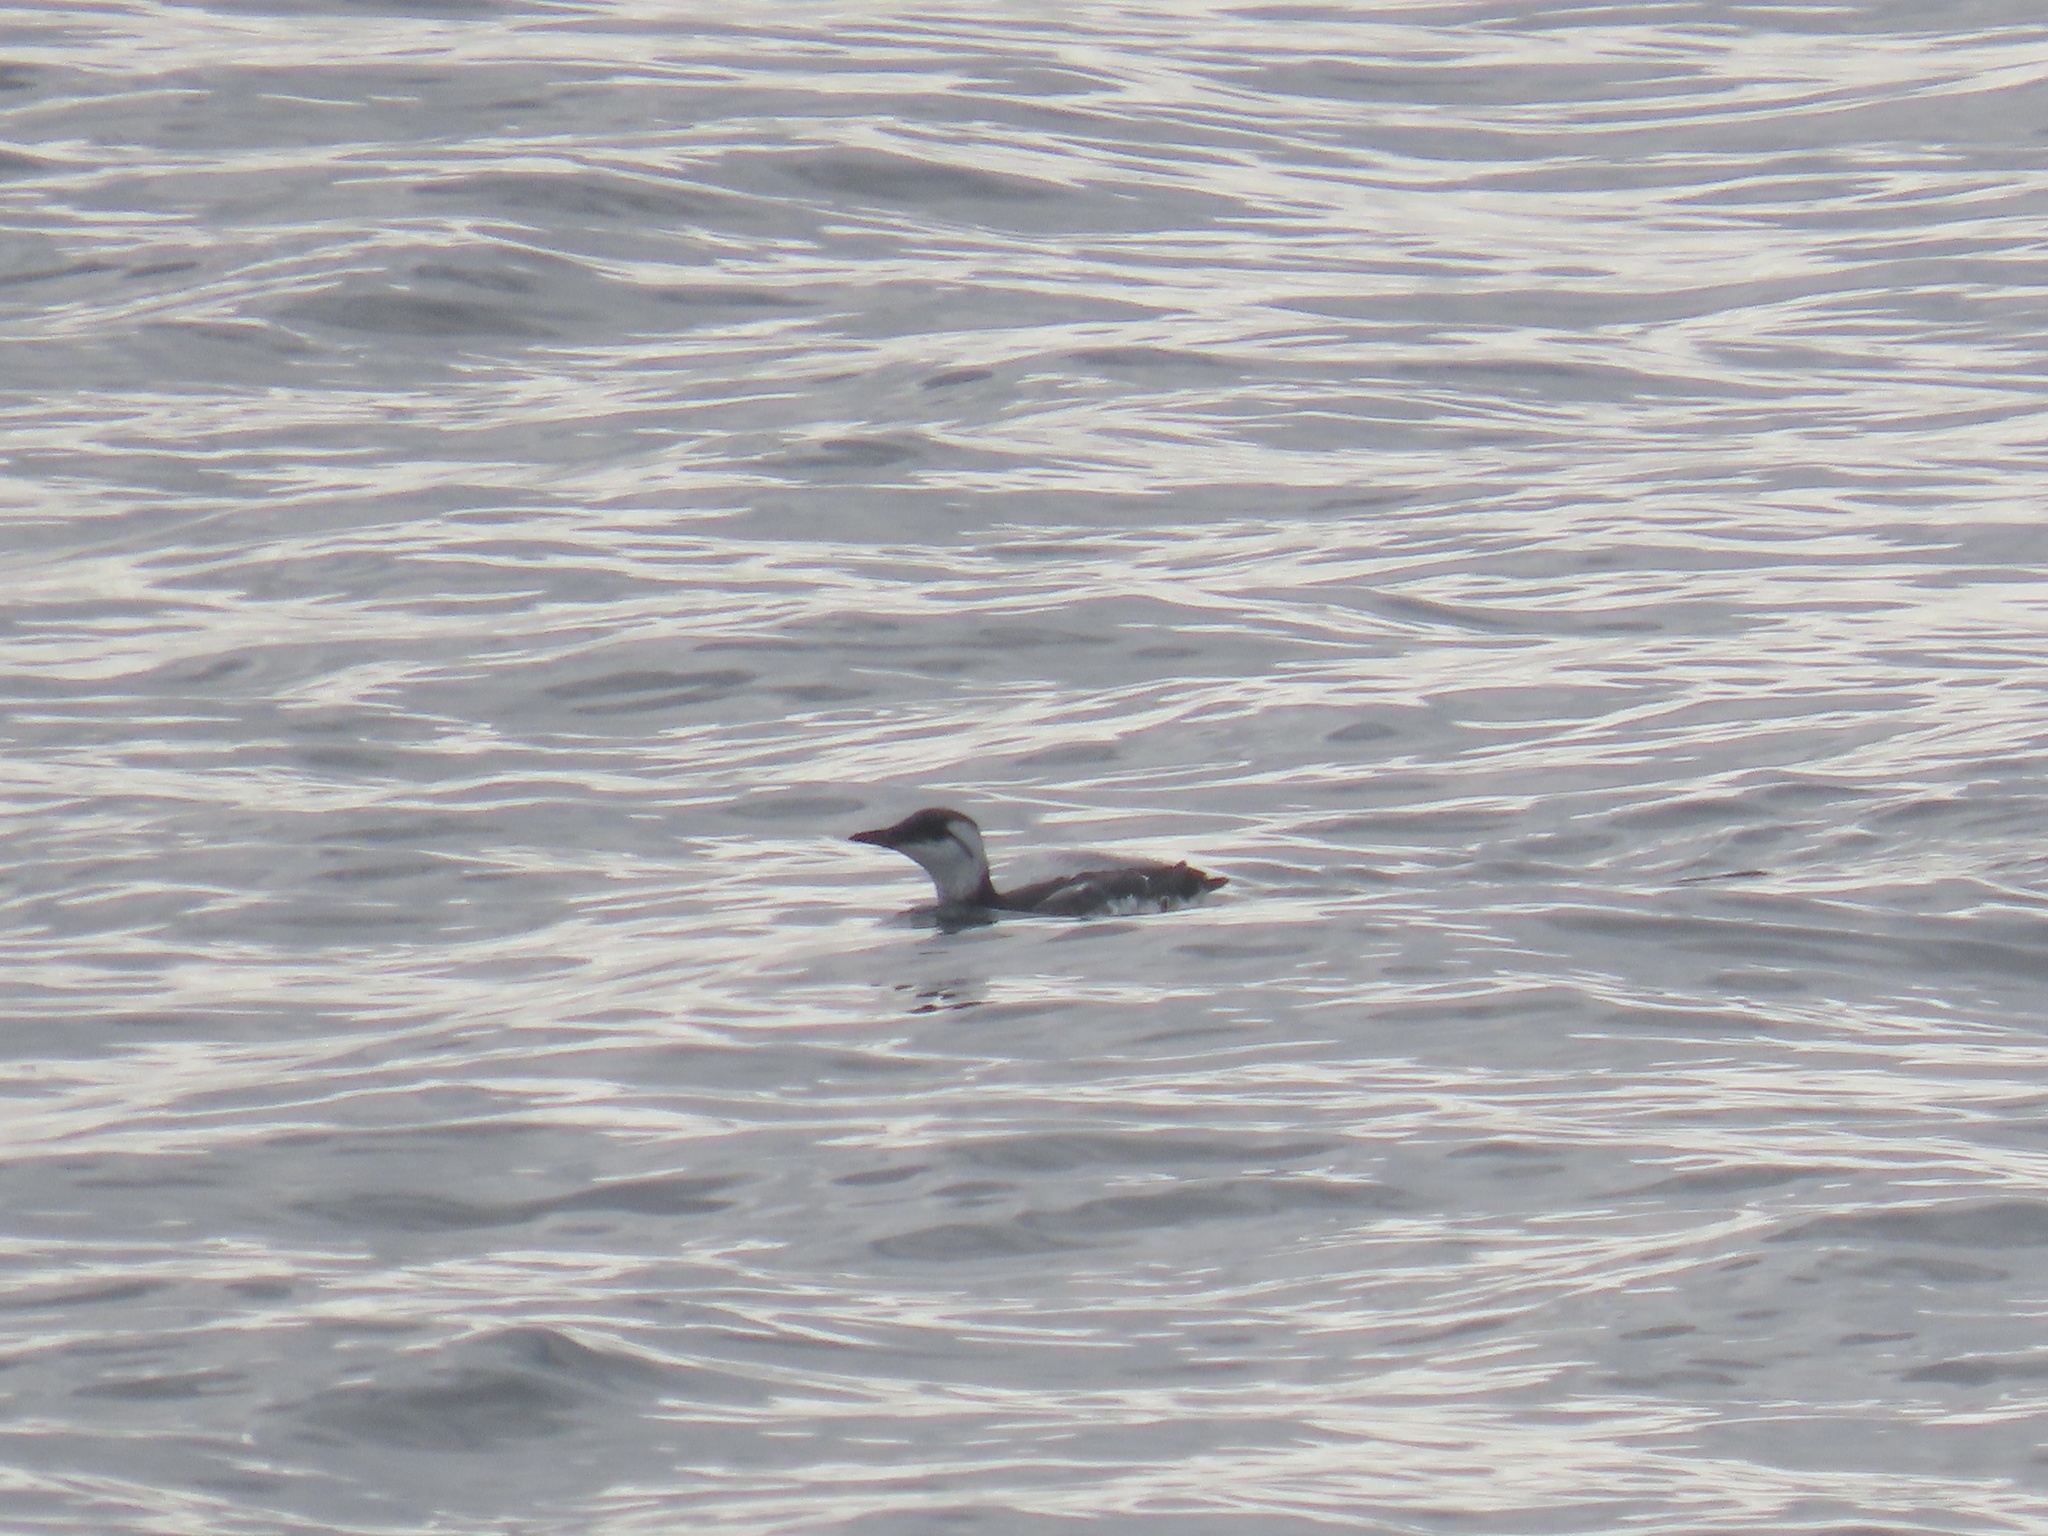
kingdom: Animalia
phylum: Chordata
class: Aves
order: Charadriiformes
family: Alcidae
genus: Uria
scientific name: Uria aalge
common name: Common murre
